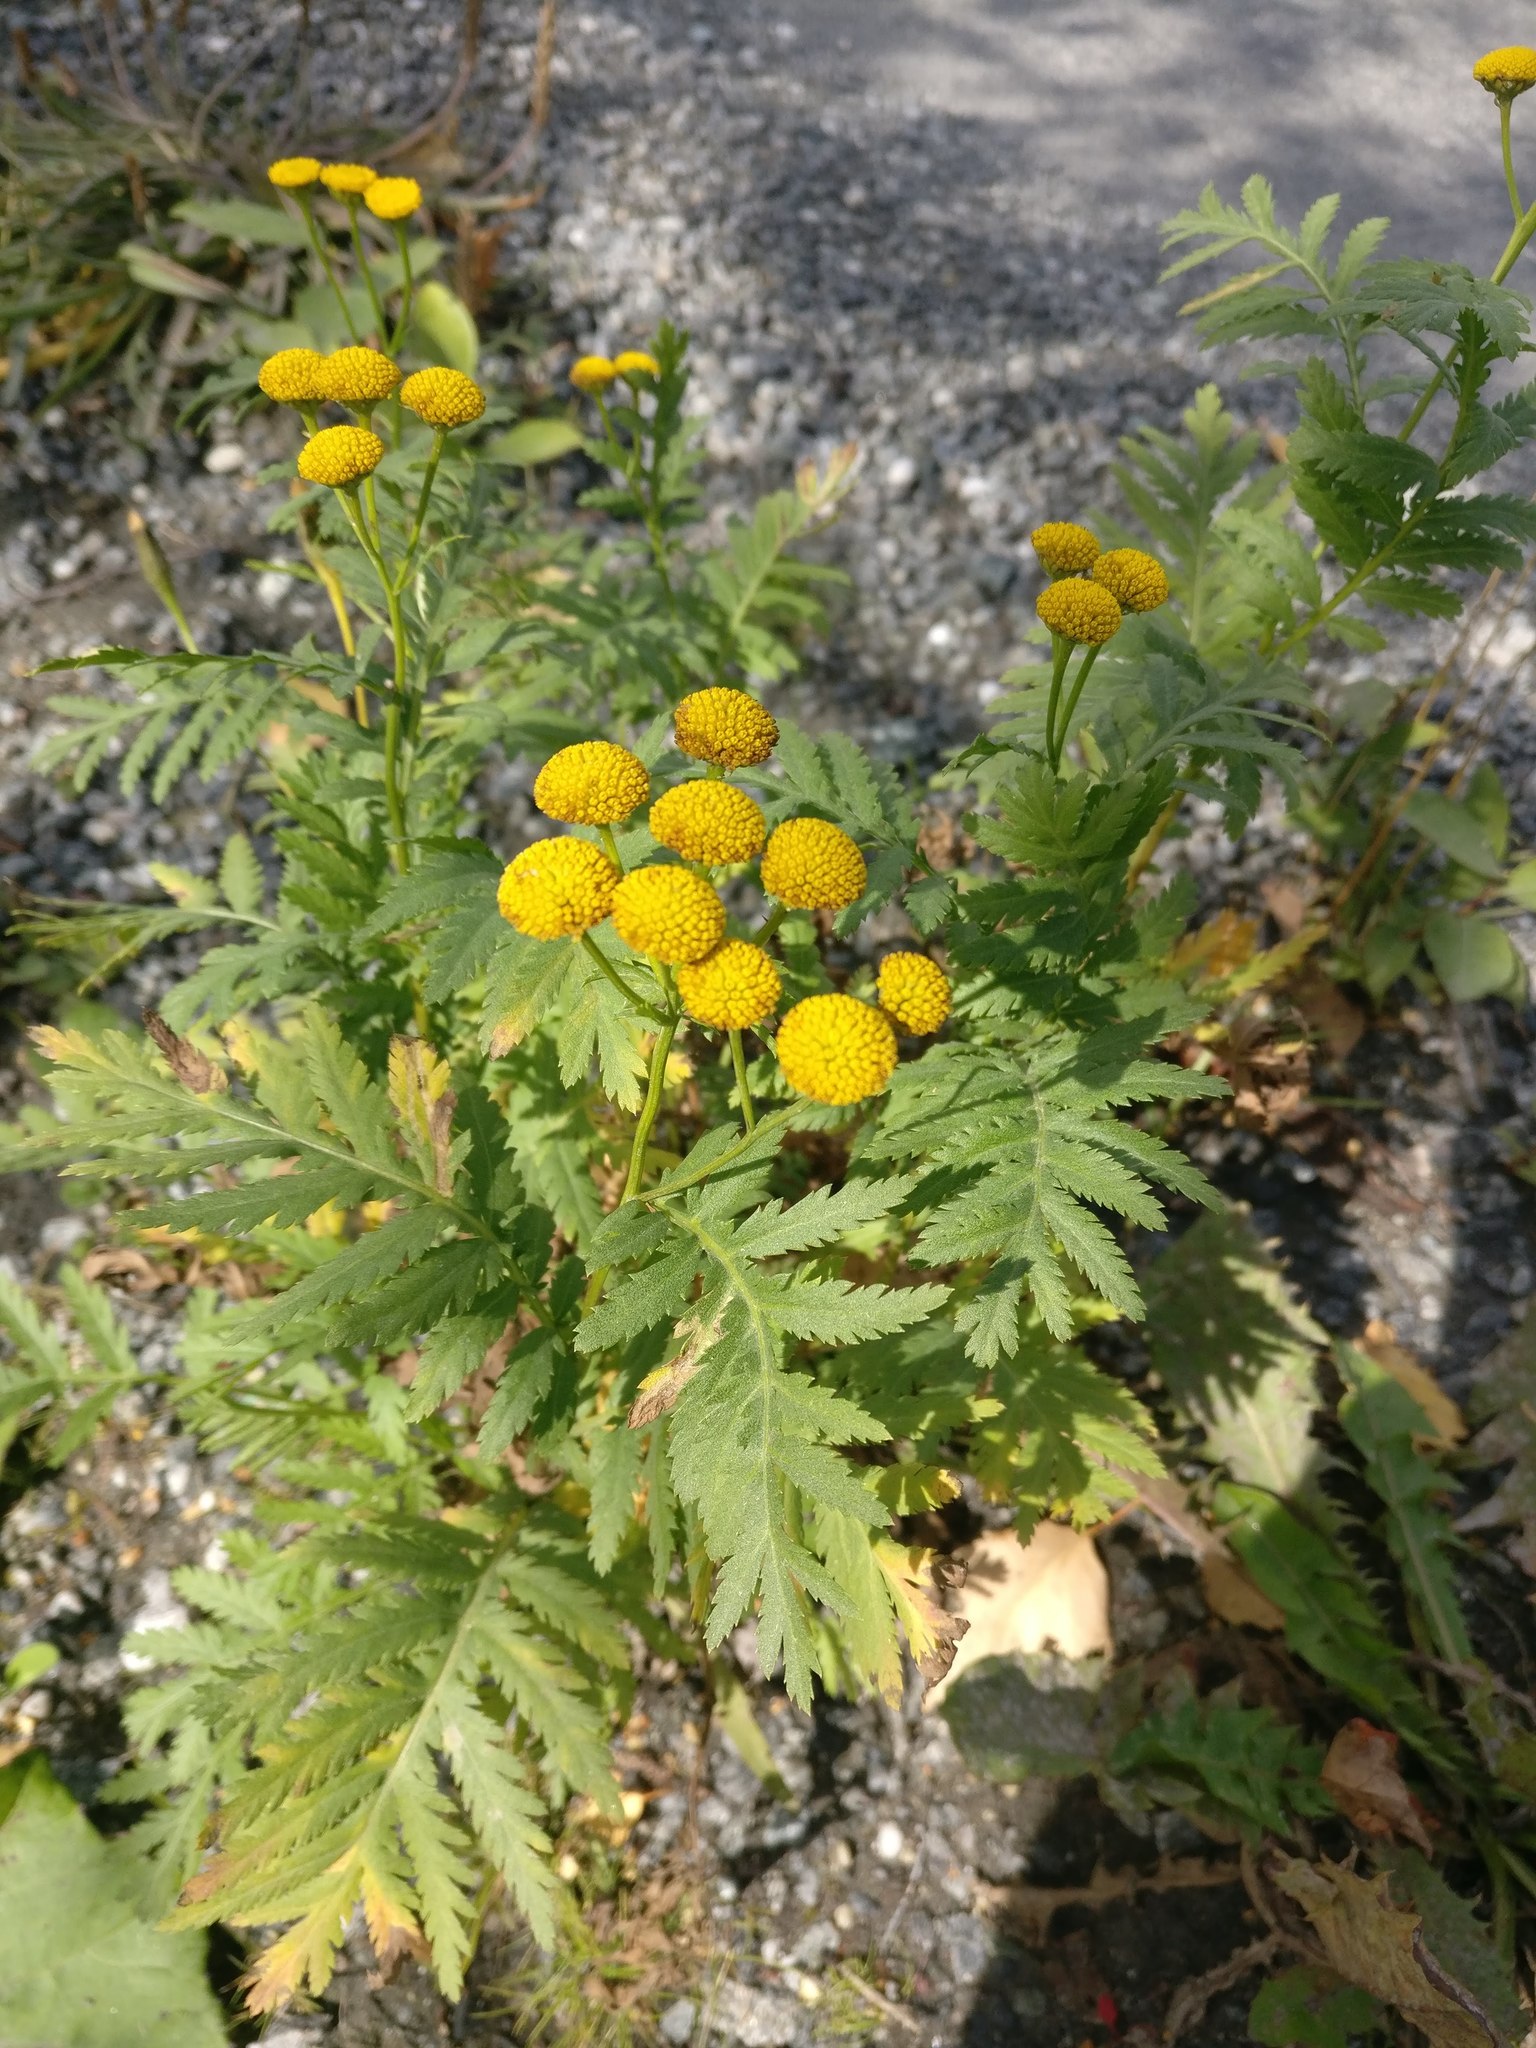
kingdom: Plantae
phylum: Tracheophyta
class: Magnoliopsida
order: Asterales
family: Asteraceae
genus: Tanacetum
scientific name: Tanacetum vulgare
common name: Common tansy
